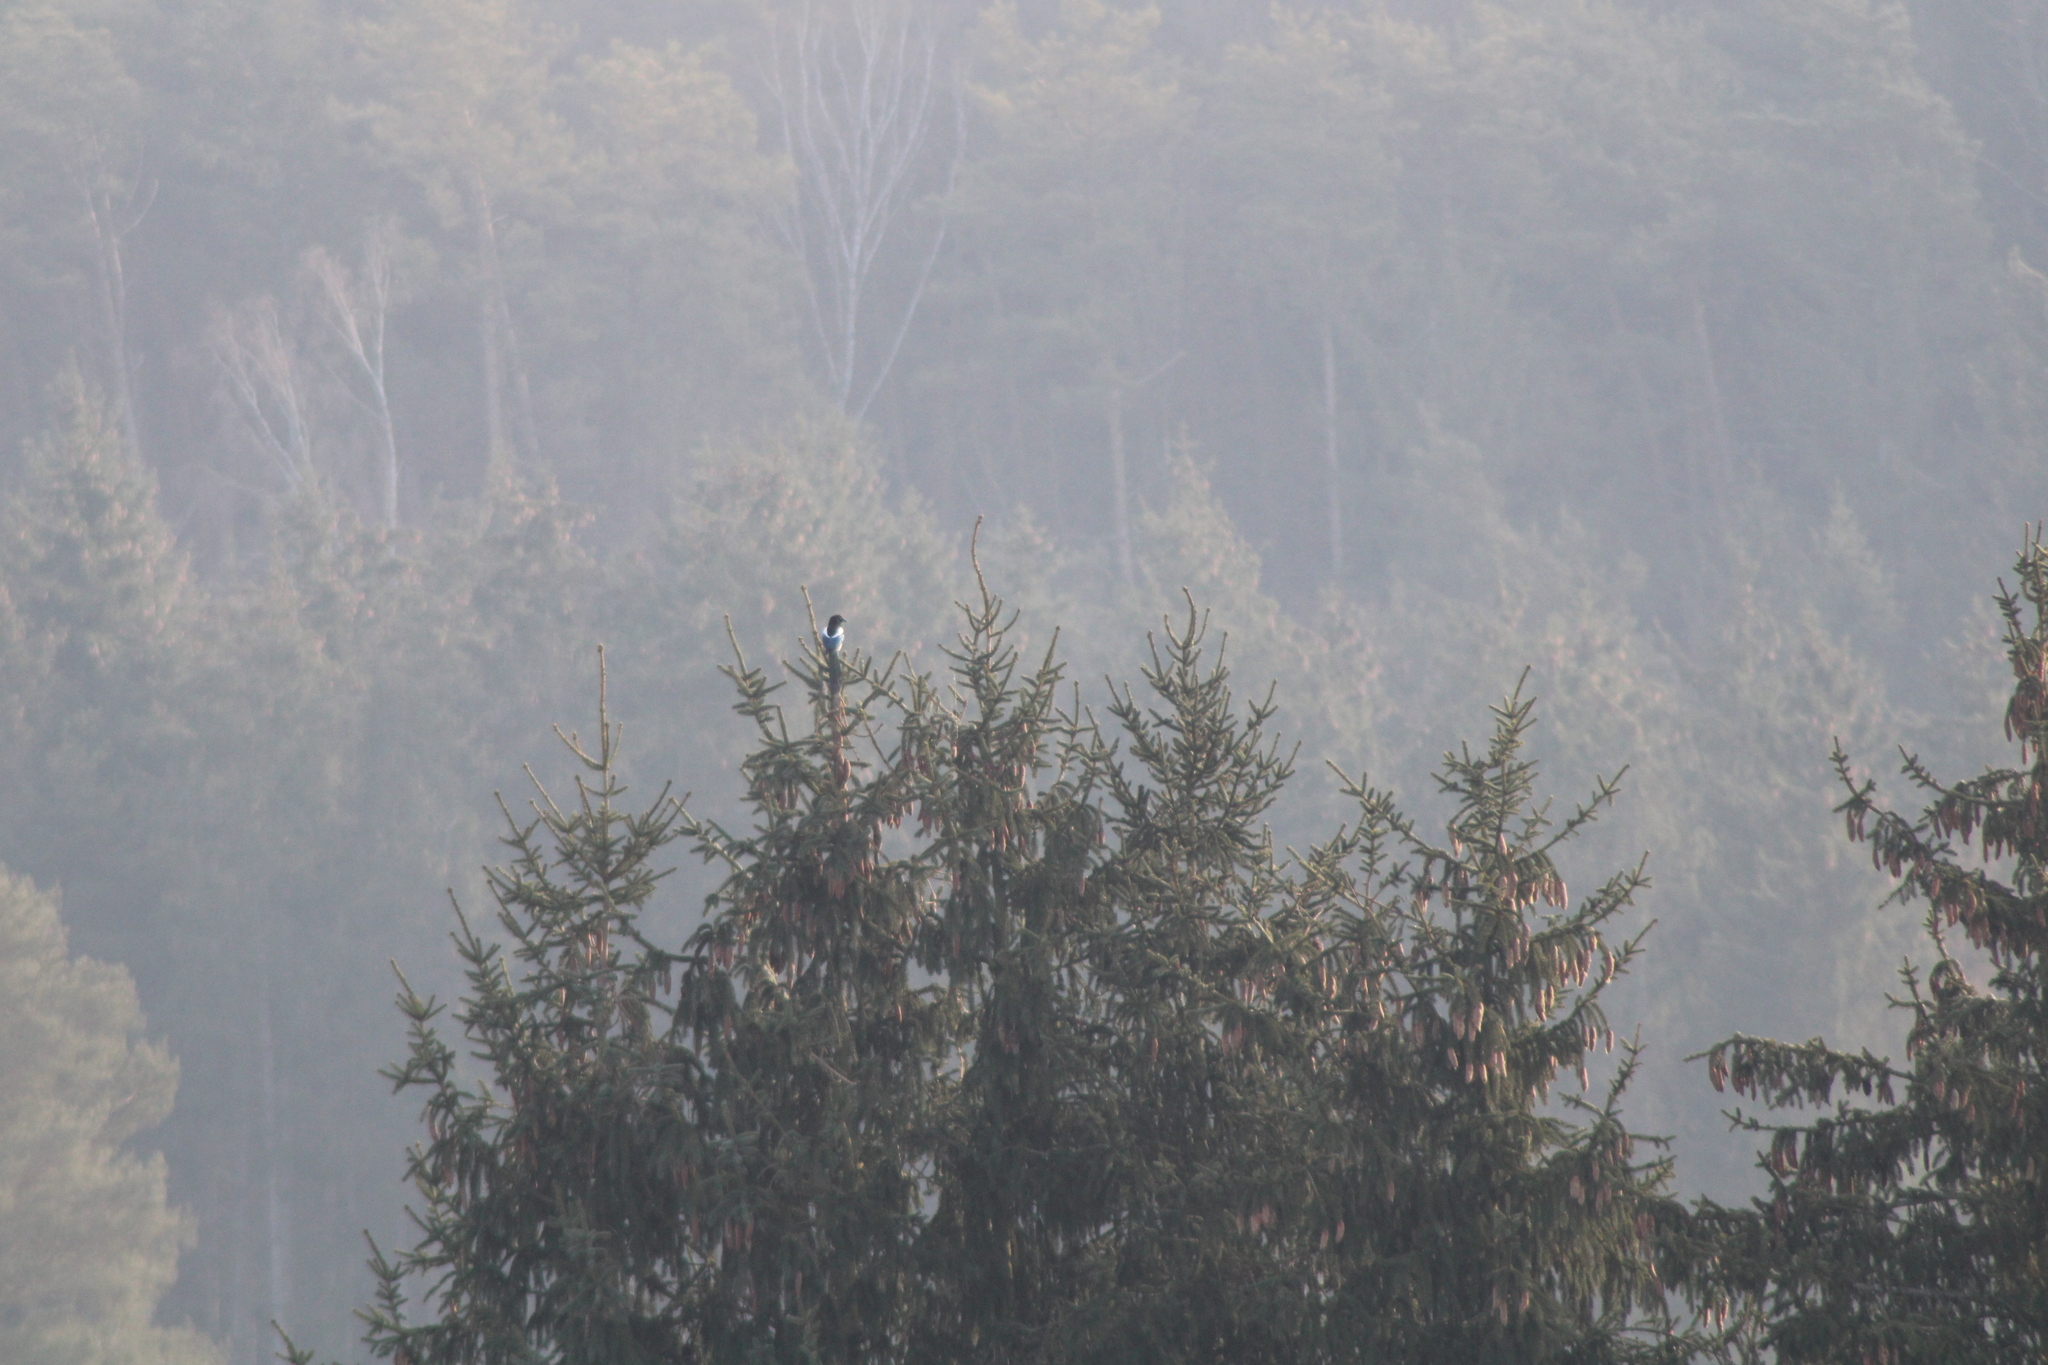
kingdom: Animalia
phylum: Chordata
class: Aves
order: Passeriformes
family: Corvidae
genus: Pica
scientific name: Pica pica
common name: Eurasian magpie
